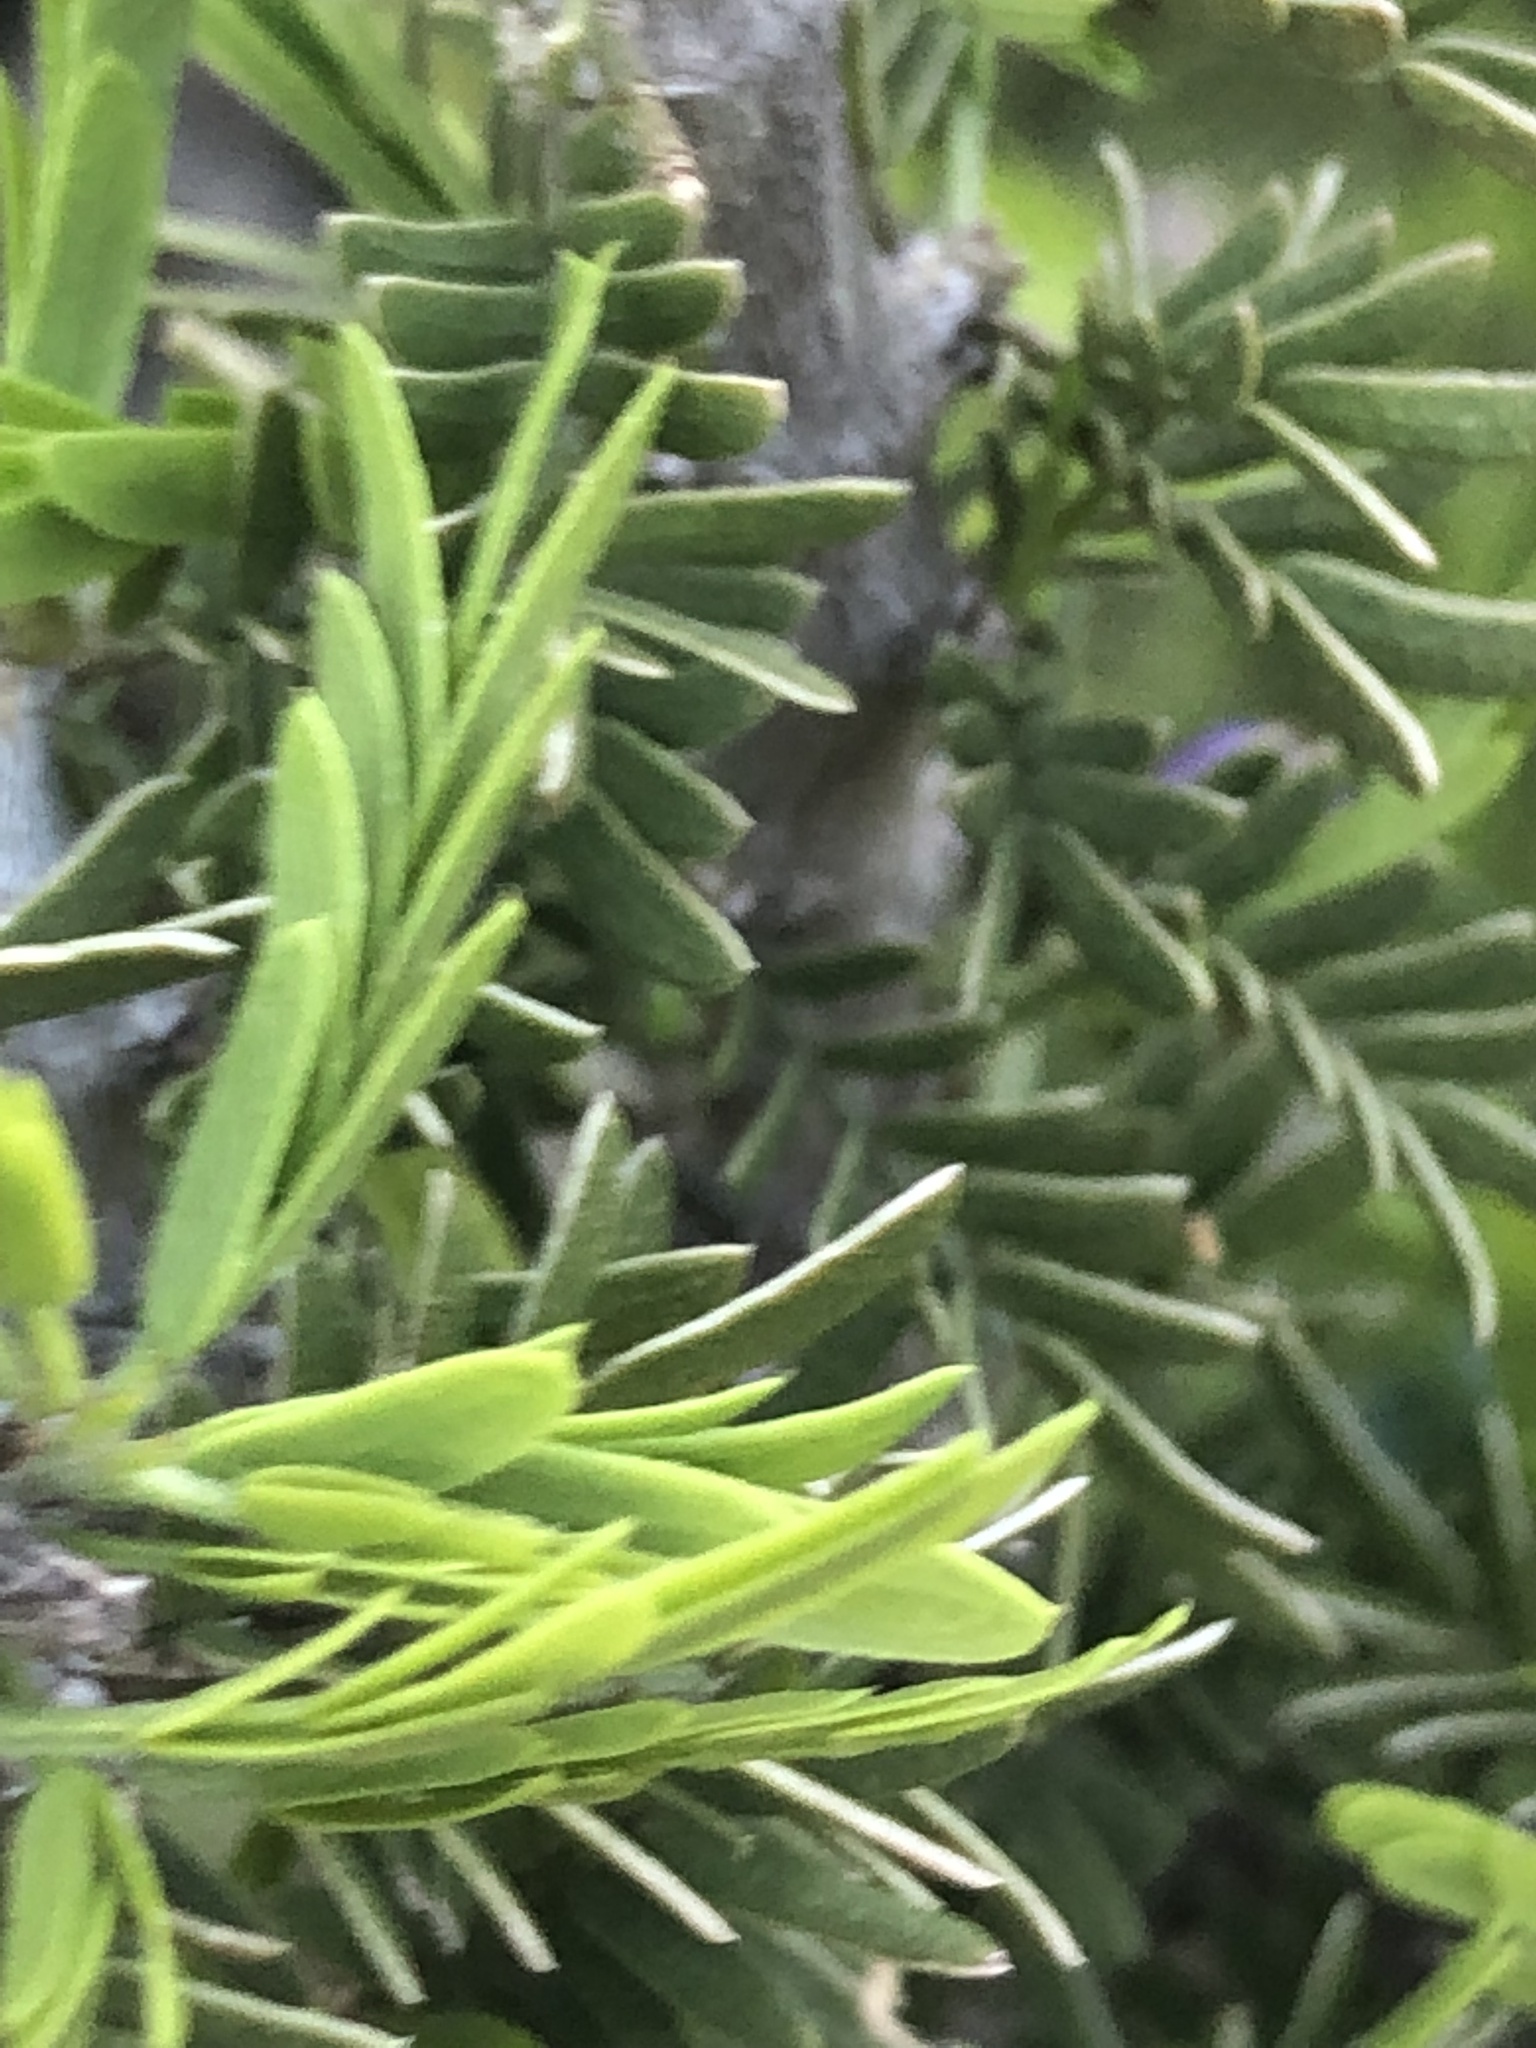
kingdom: Plantae
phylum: Tracheophyta
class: Magnoliopsida
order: Zygophyllales
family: Zygophyllaceae
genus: Porlieria
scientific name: Porlieria angustifolia
